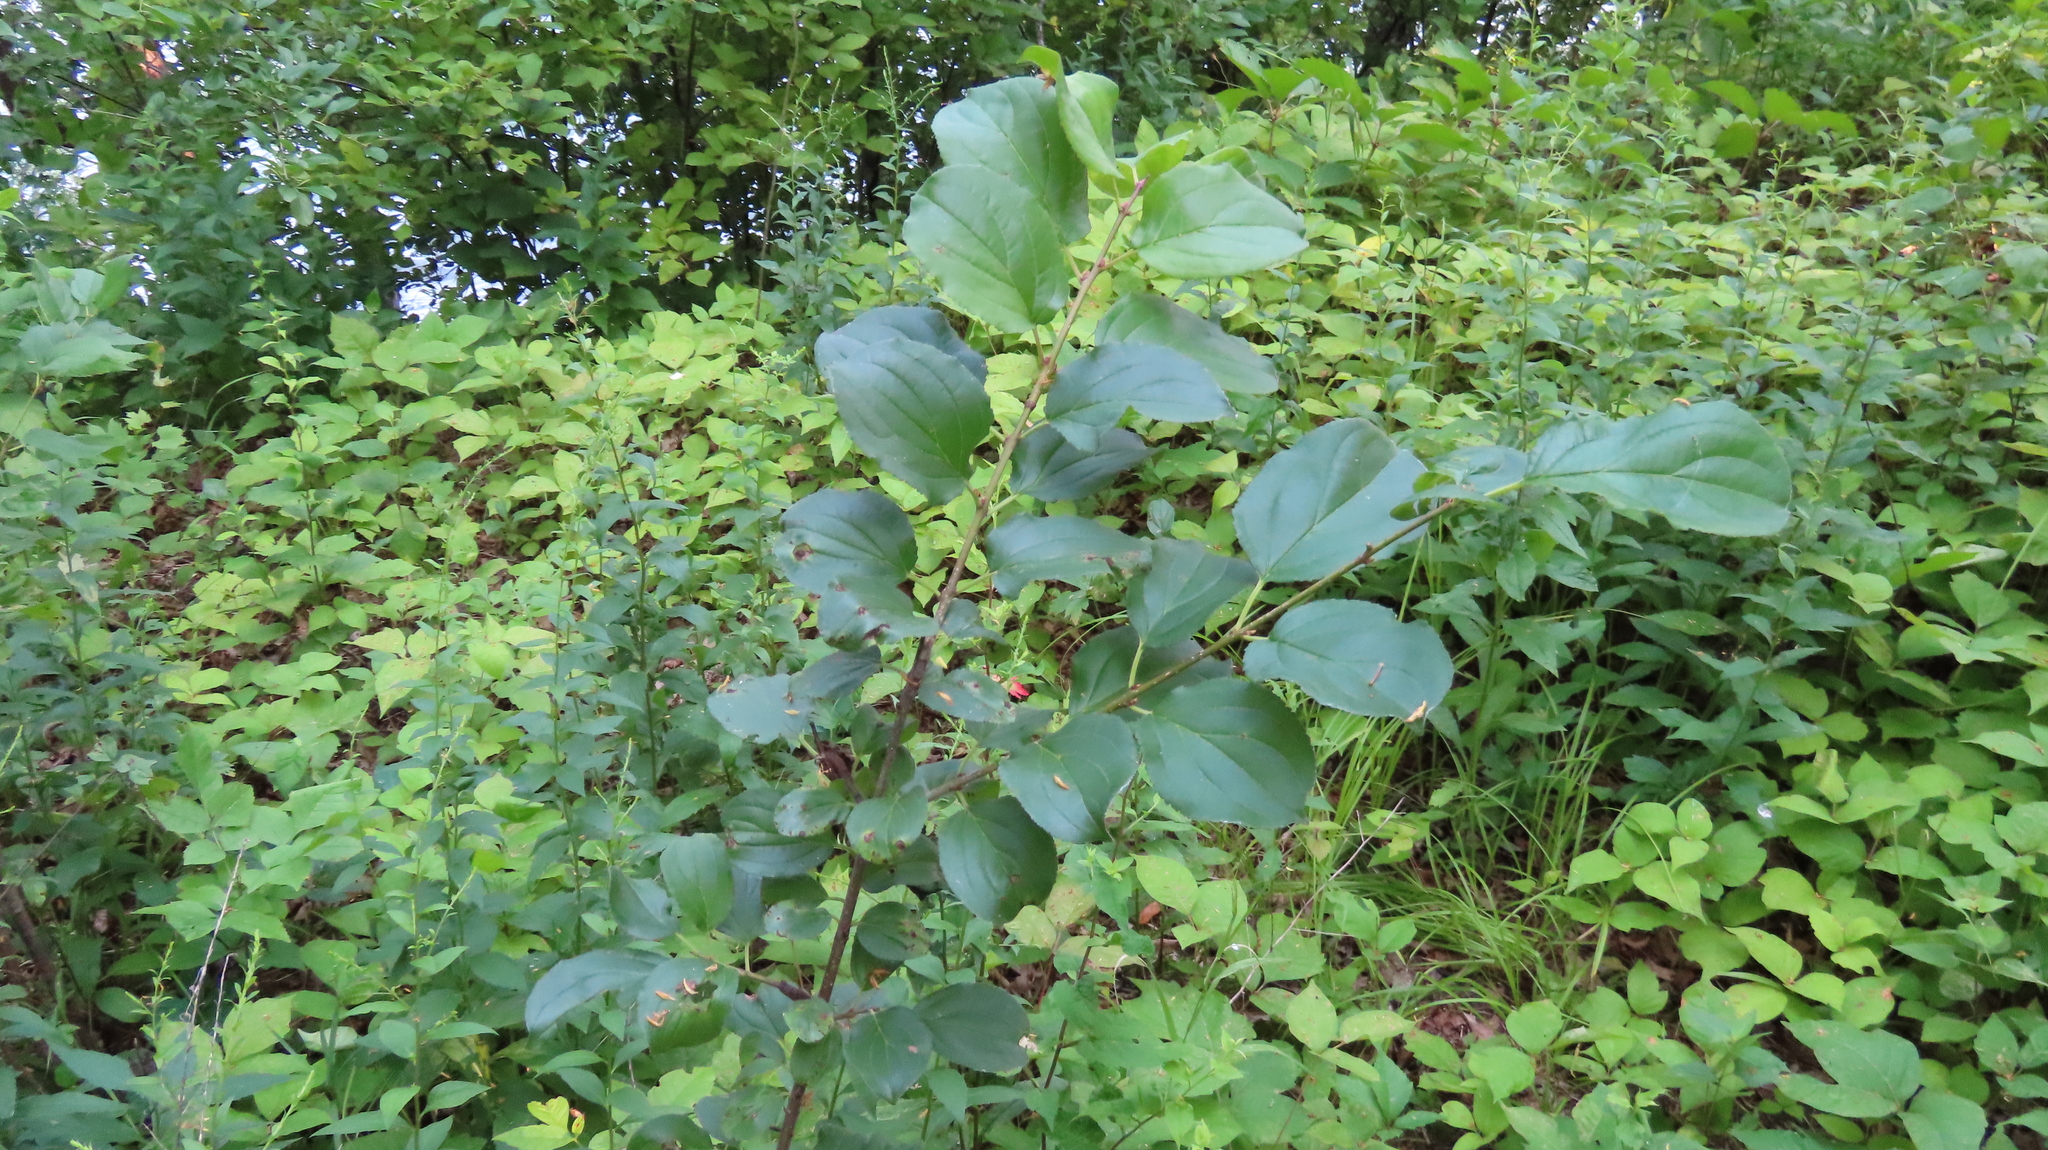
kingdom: Plantae
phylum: Tracheophyta
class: Magnoliopsida
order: Rosales
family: Rhamnaceae
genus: Rhamnus
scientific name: Rhamnus cathartica
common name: Common buckthorn
